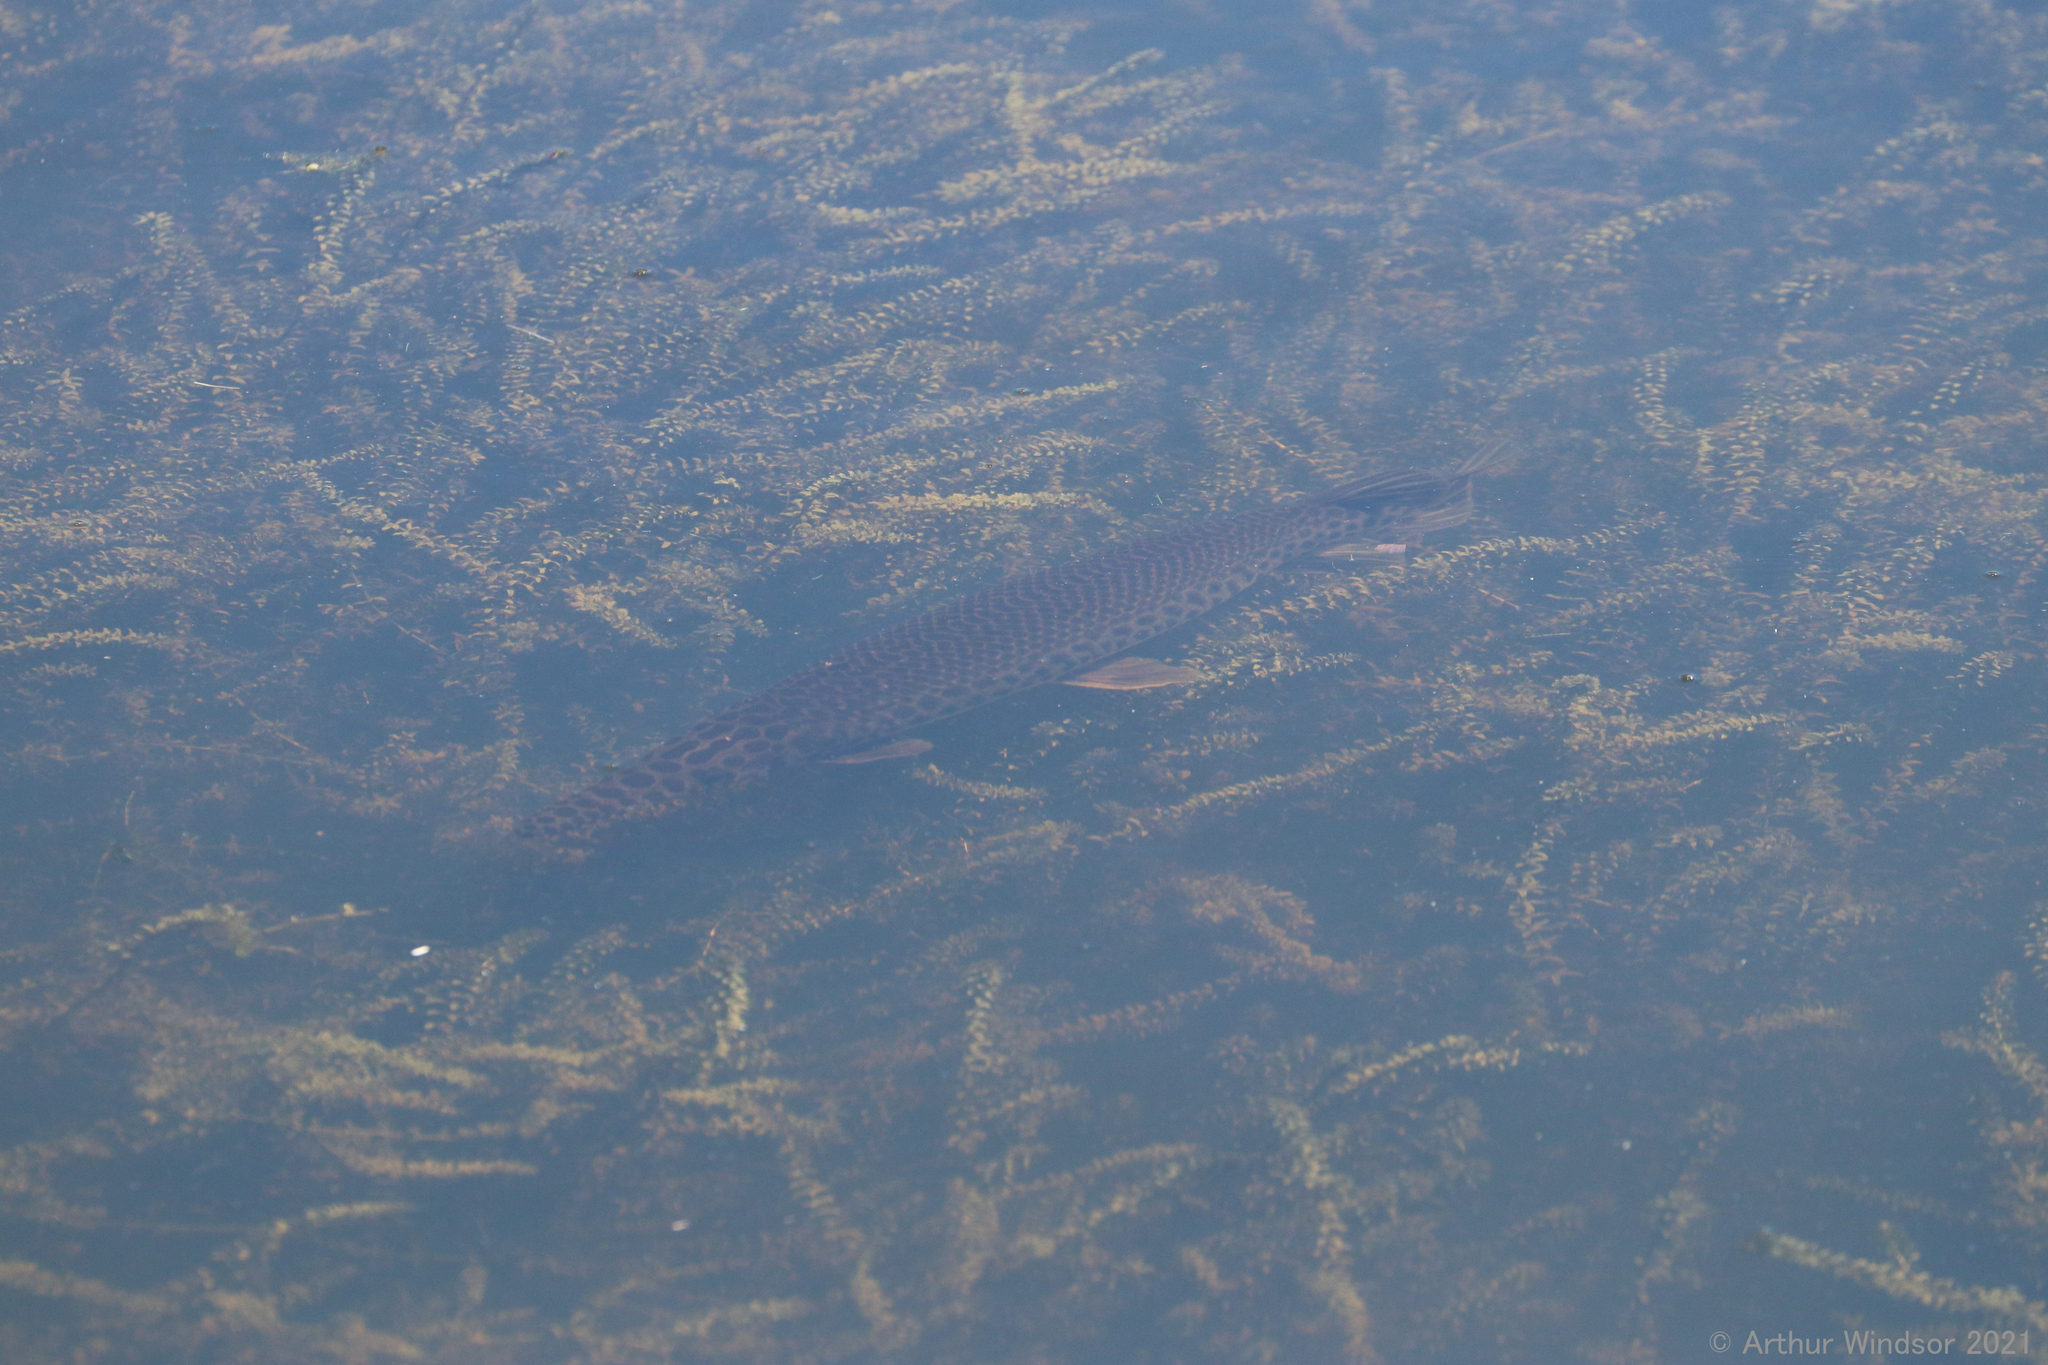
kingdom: Animalia
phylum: Chordata
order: Lepisosteiformes
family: Lepisosteidae
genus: Lepisosteus
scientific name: Lepisosteus platyrhincus
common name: Florida gar
